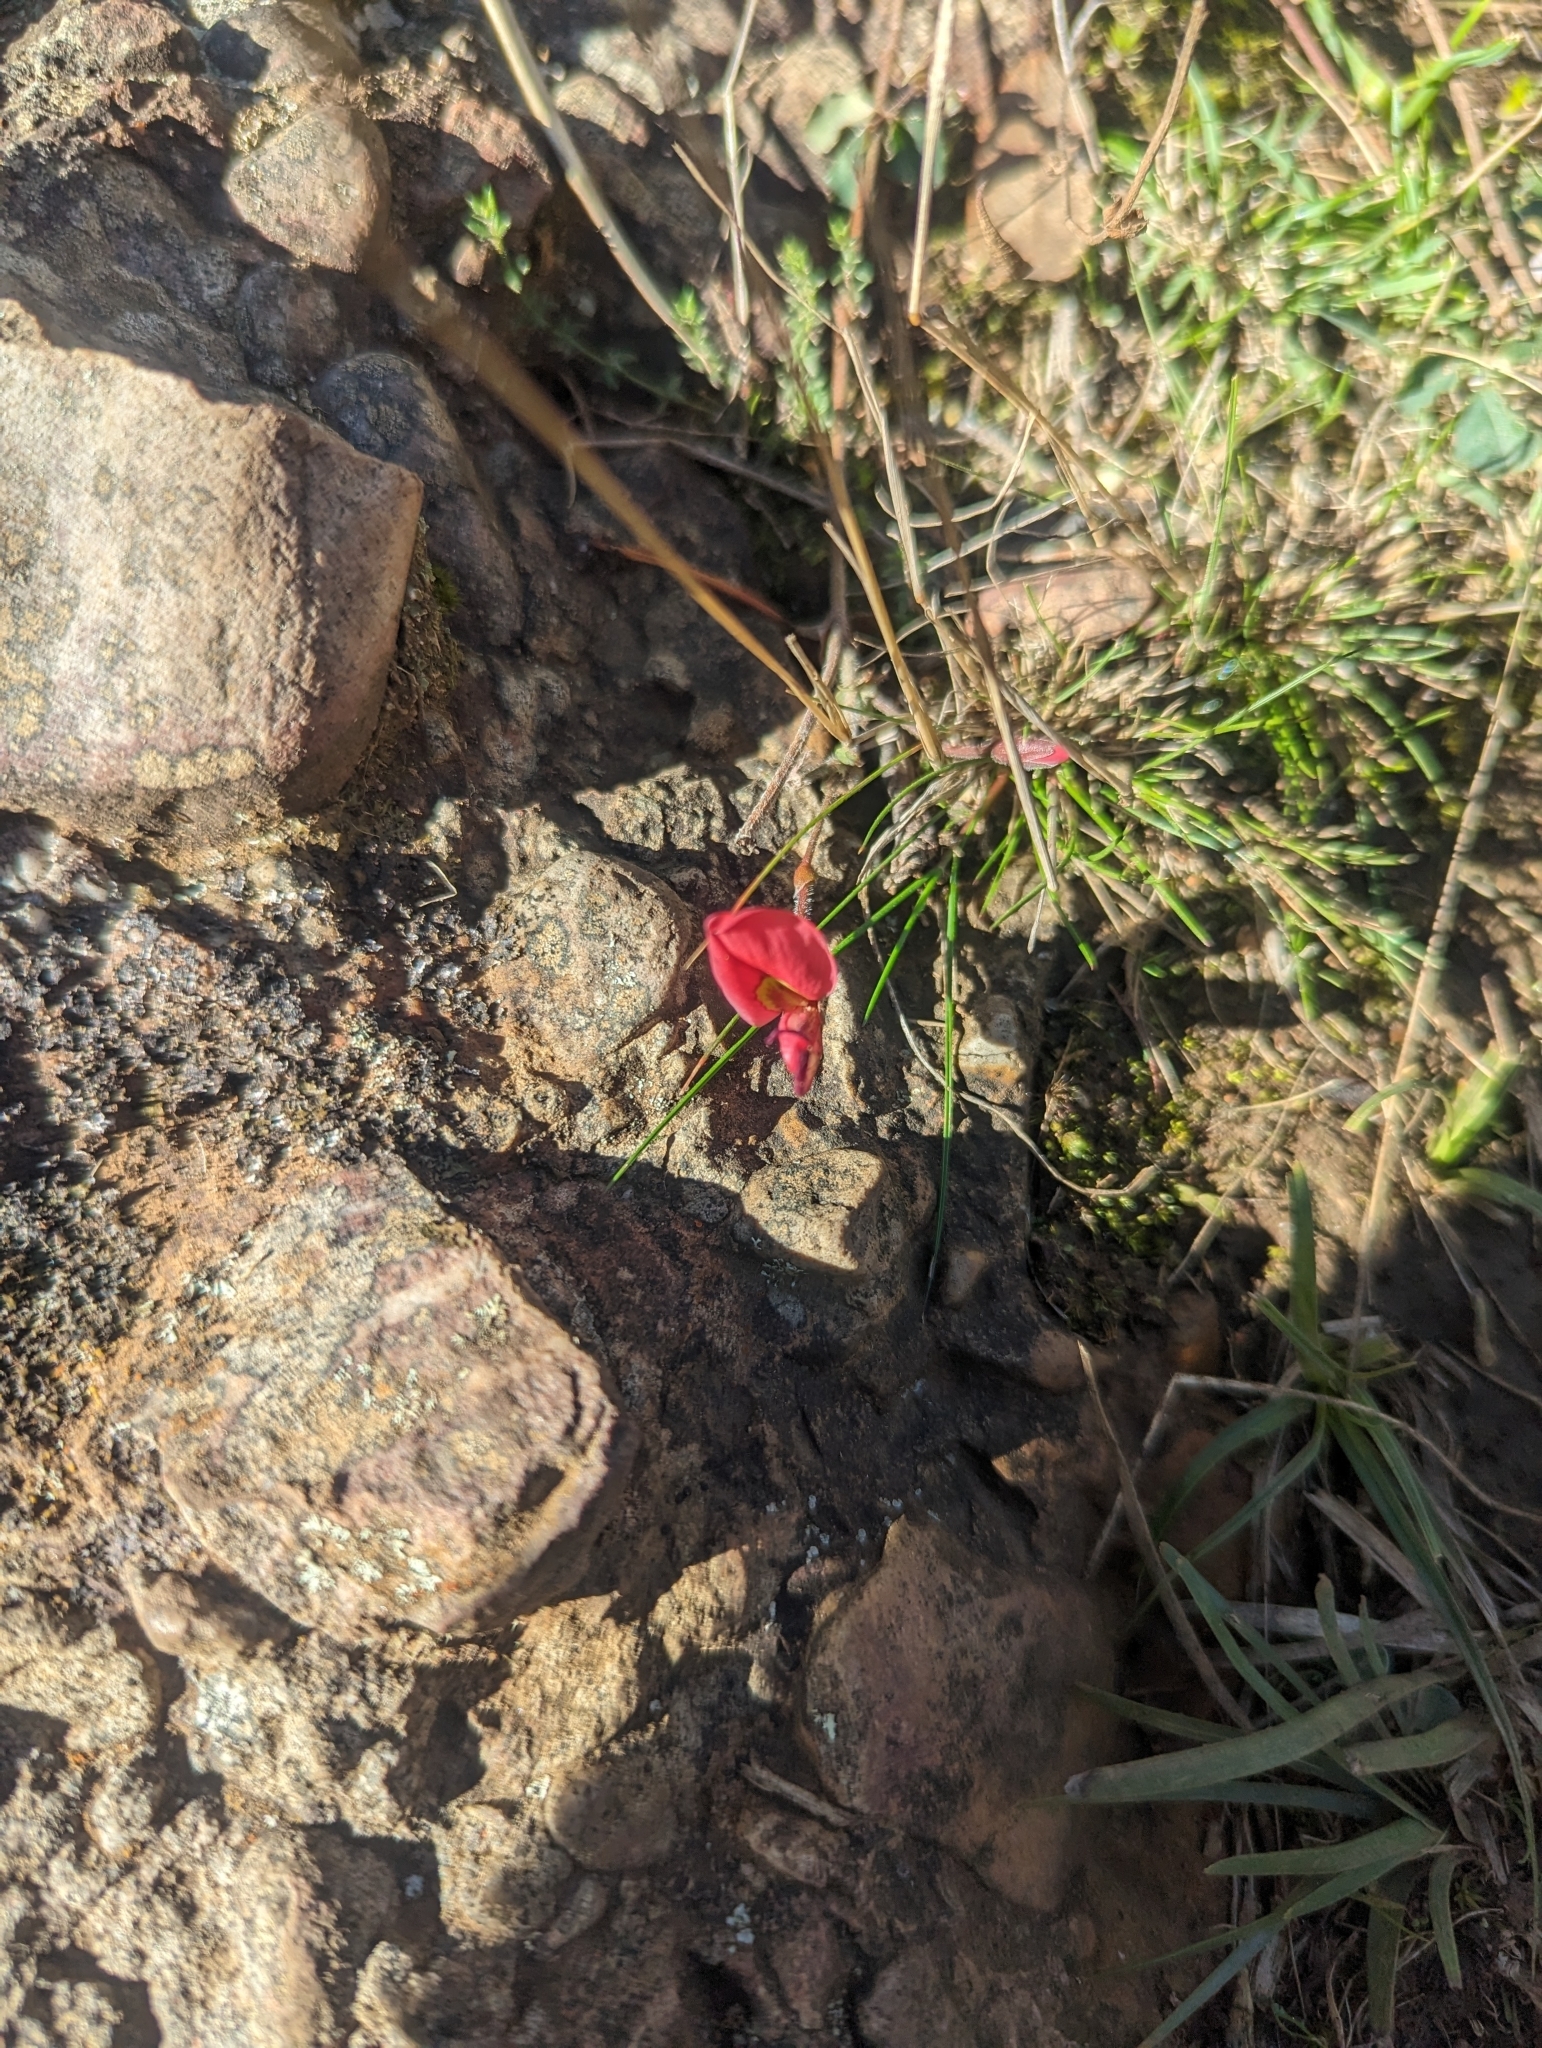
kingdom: Plantae
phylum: Tracheophyta
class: Magnoliopsida
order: Fabales
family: Fabaceae
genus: Kennedia
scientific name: Kennedia prostrata
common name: Running-postman
